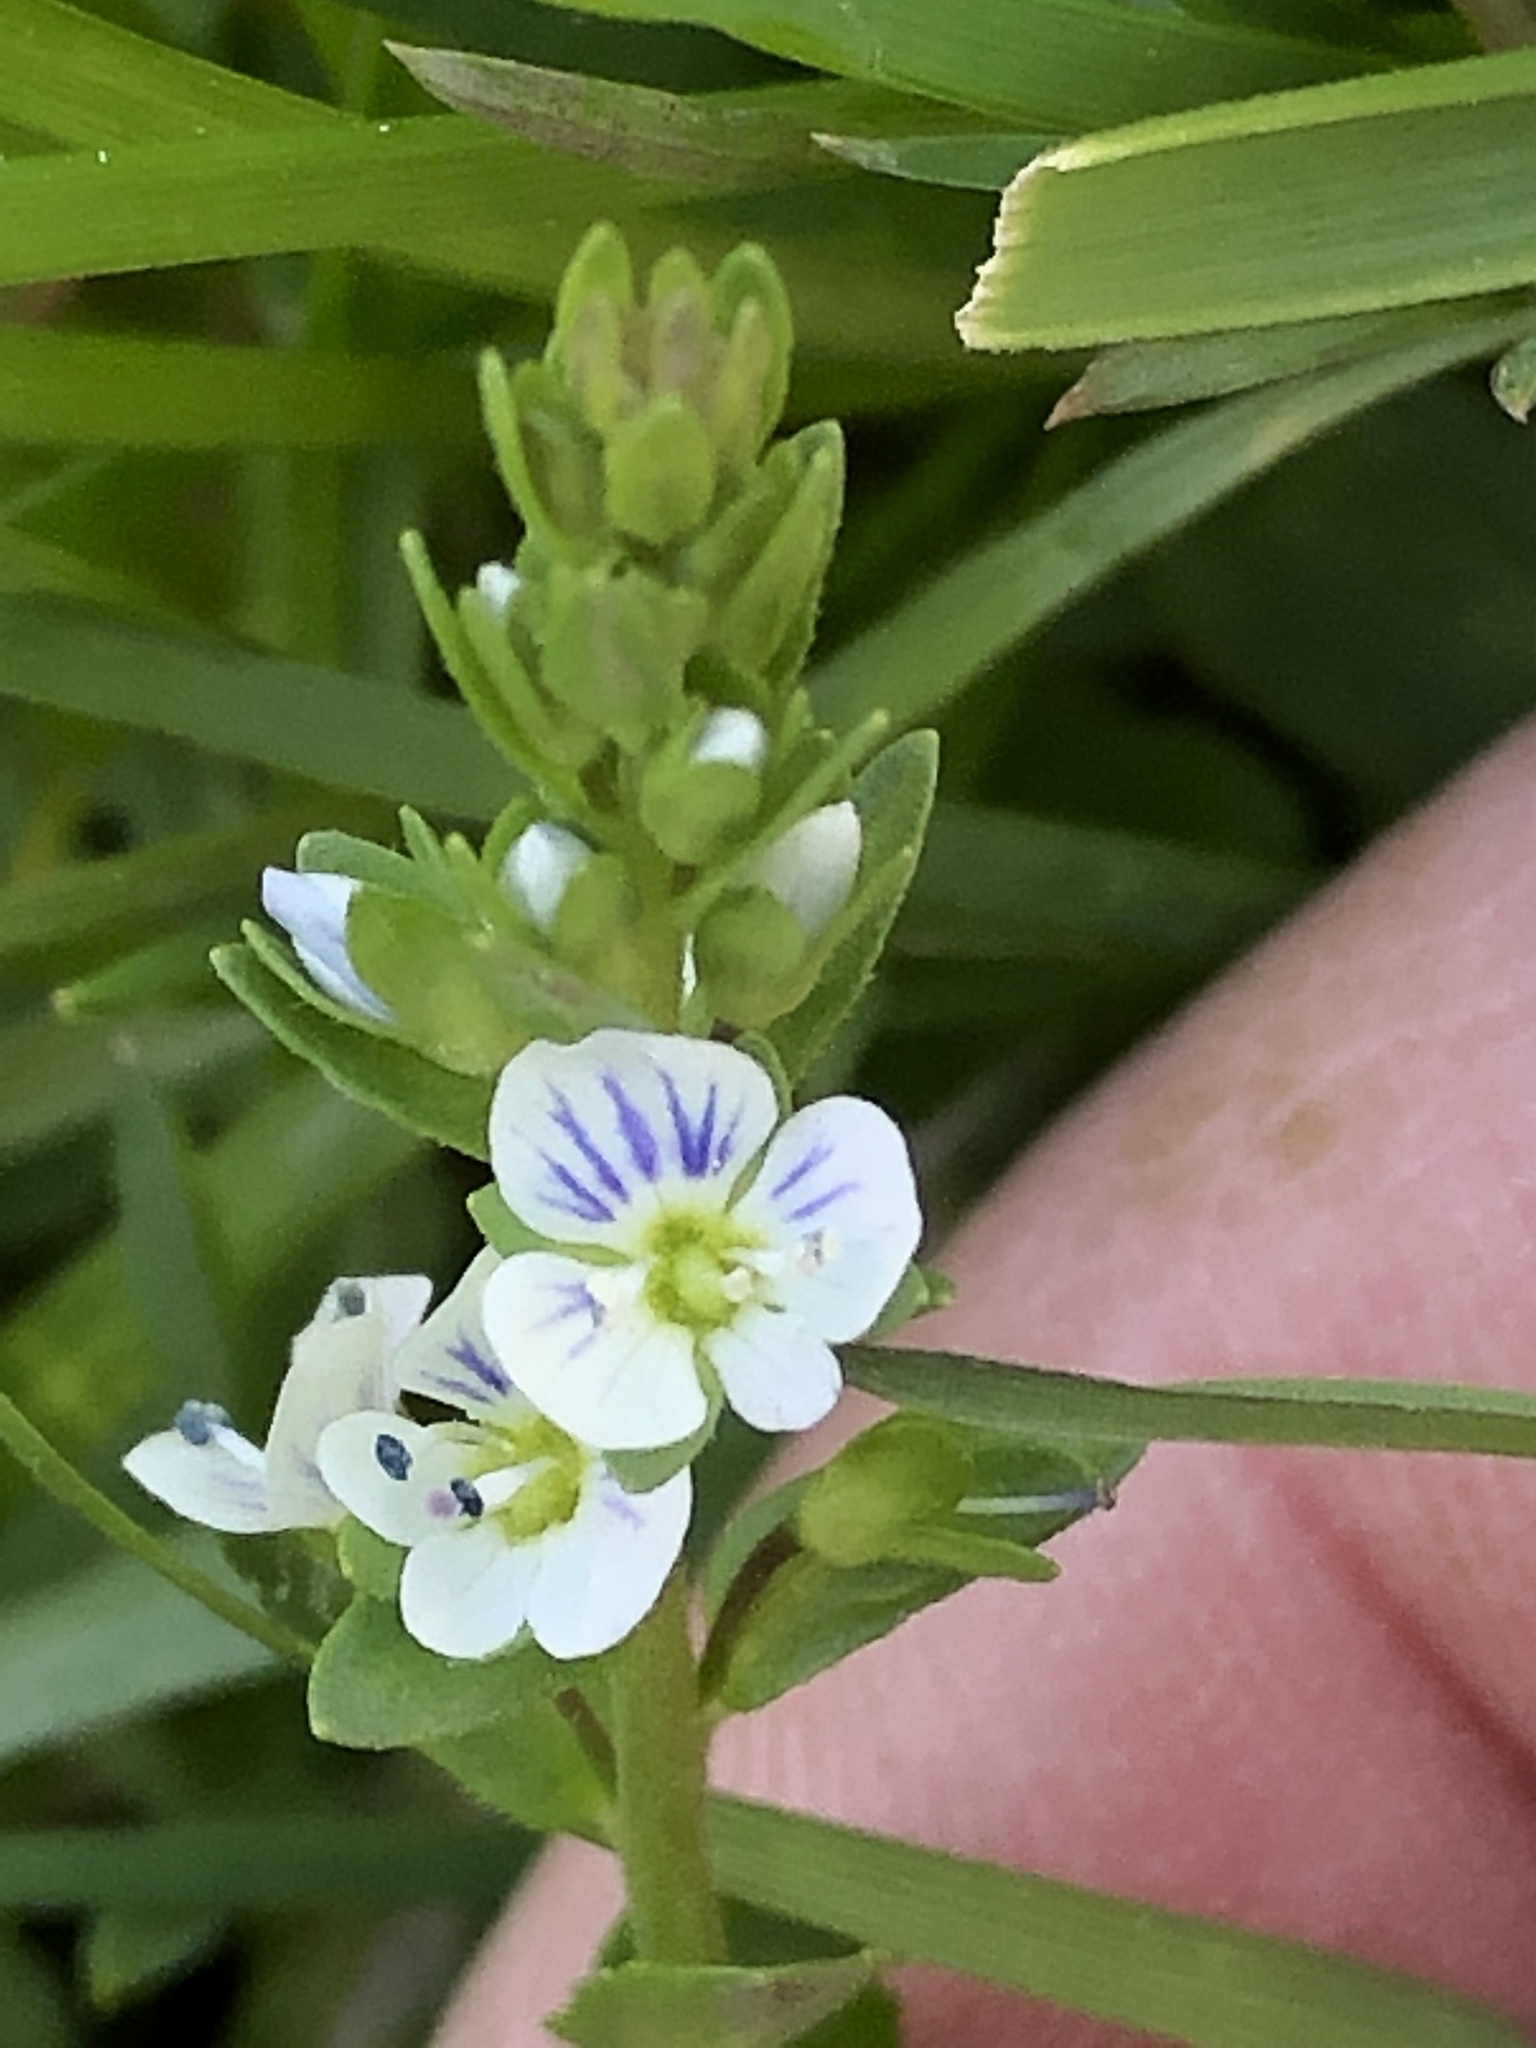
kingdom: Plantae
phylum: Tracheophyta
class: Magnoliopsida
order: Lamiales
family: Plantaginaceae
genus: Veronica
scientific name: Veronica serpyllifolia
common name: Thyme-leaved speedwell
